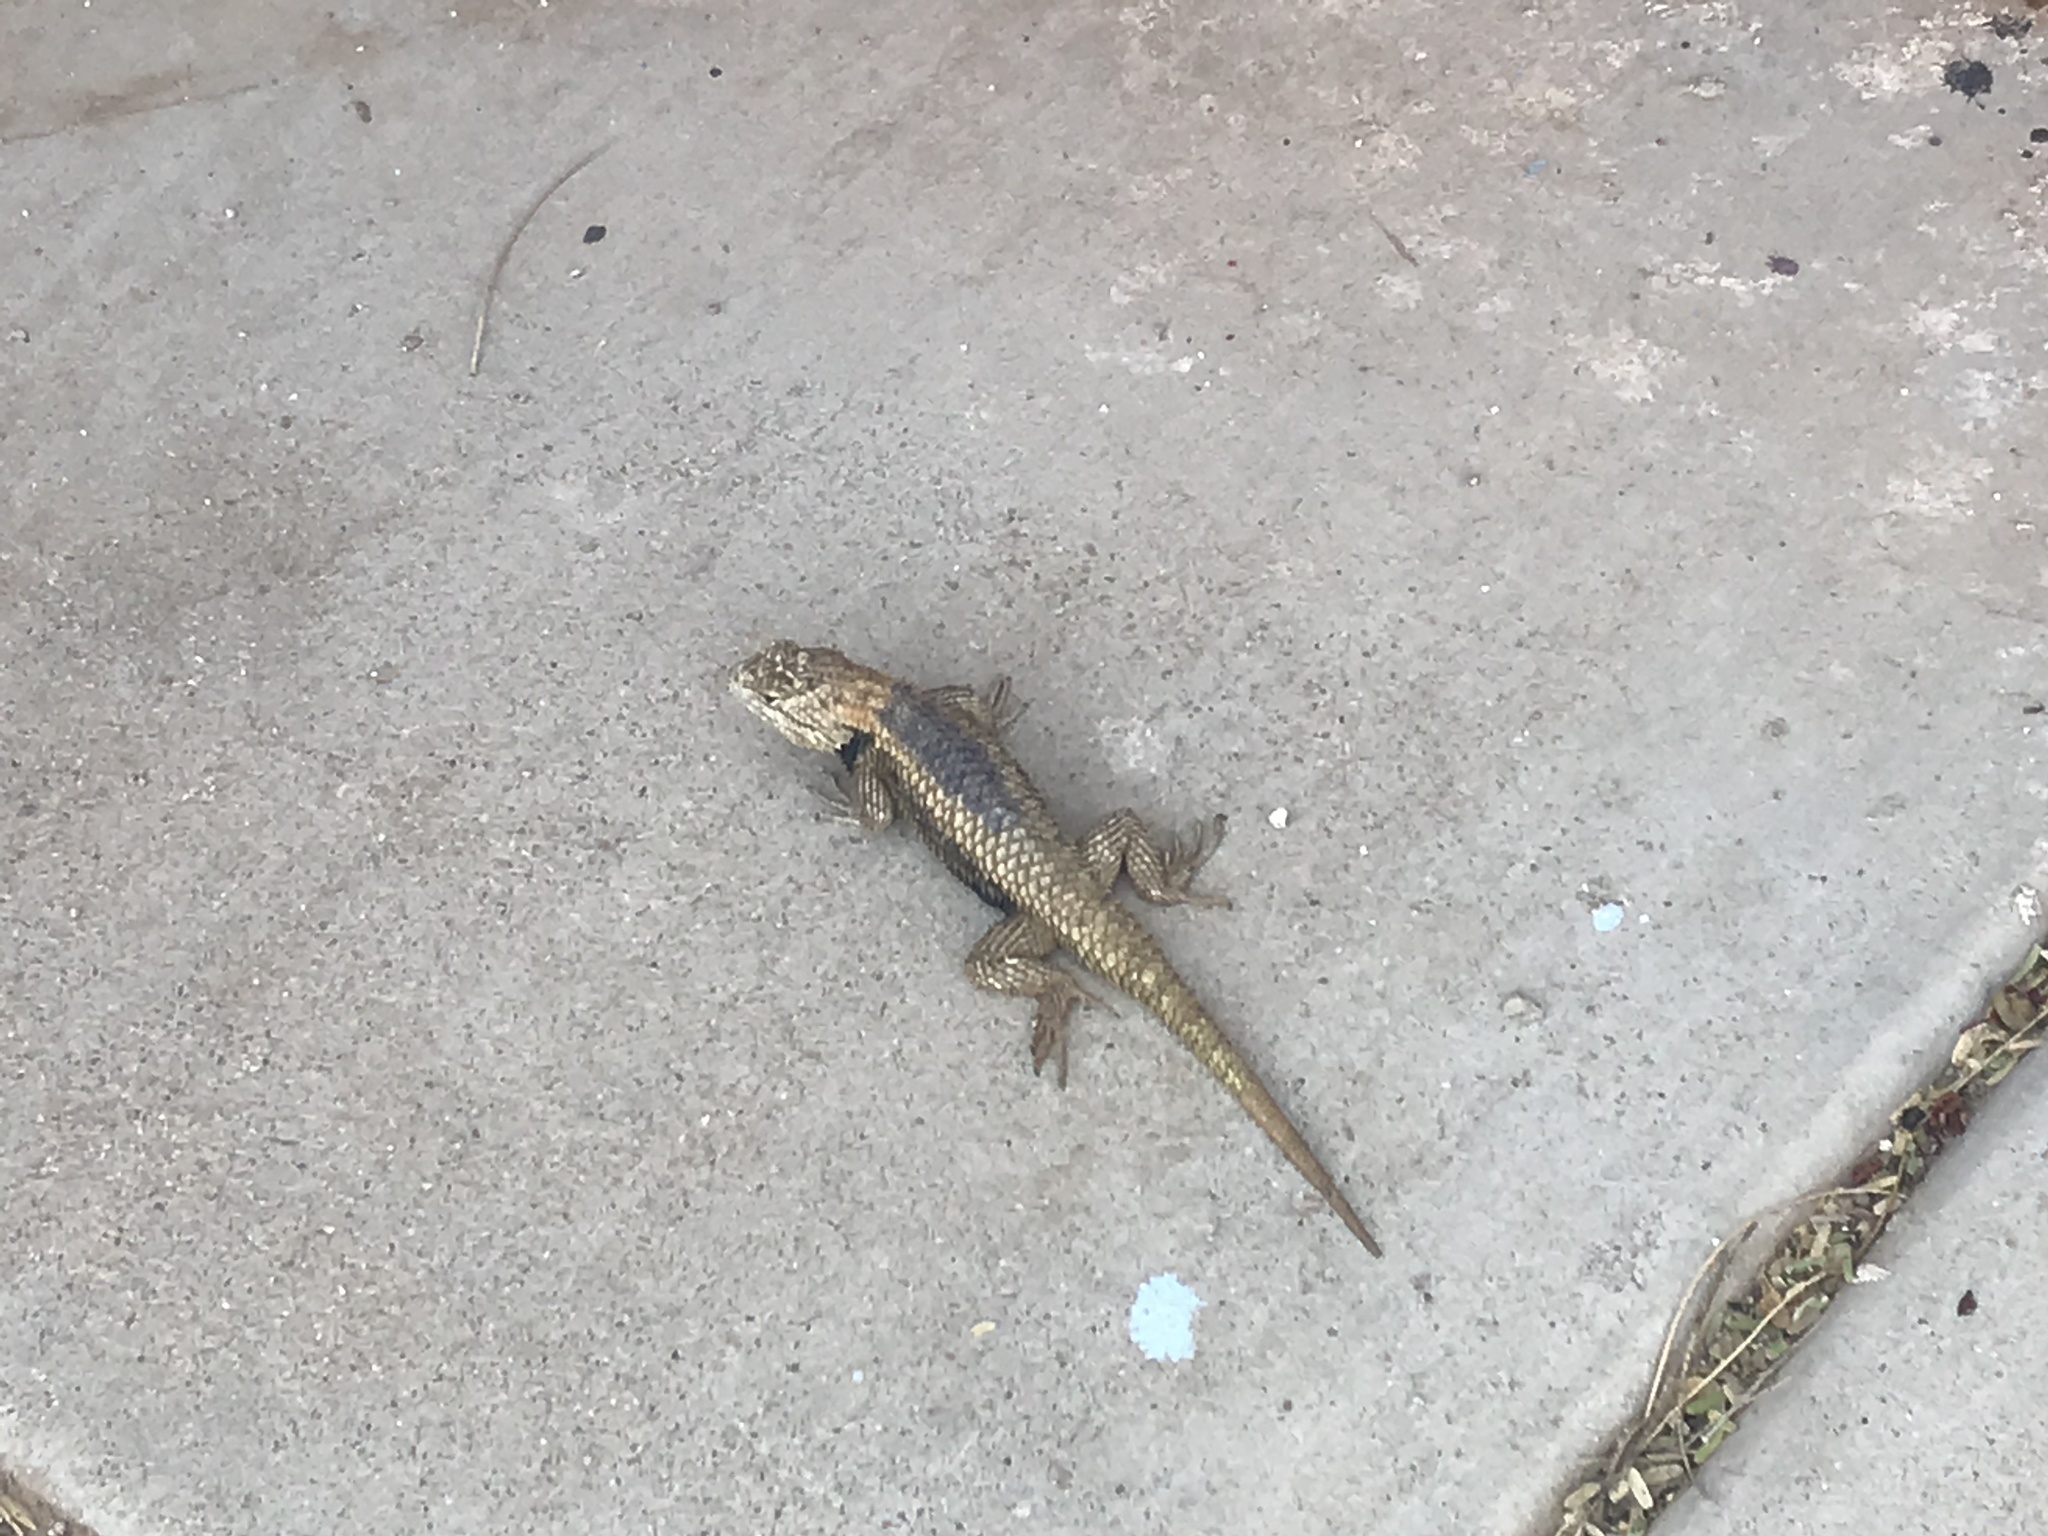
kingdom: Animalia
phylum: Chordata
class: Squamata
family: Phrynosomatidae
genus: Sceloporus
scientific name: Sceloporus magister
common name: Desert spiny lizard
